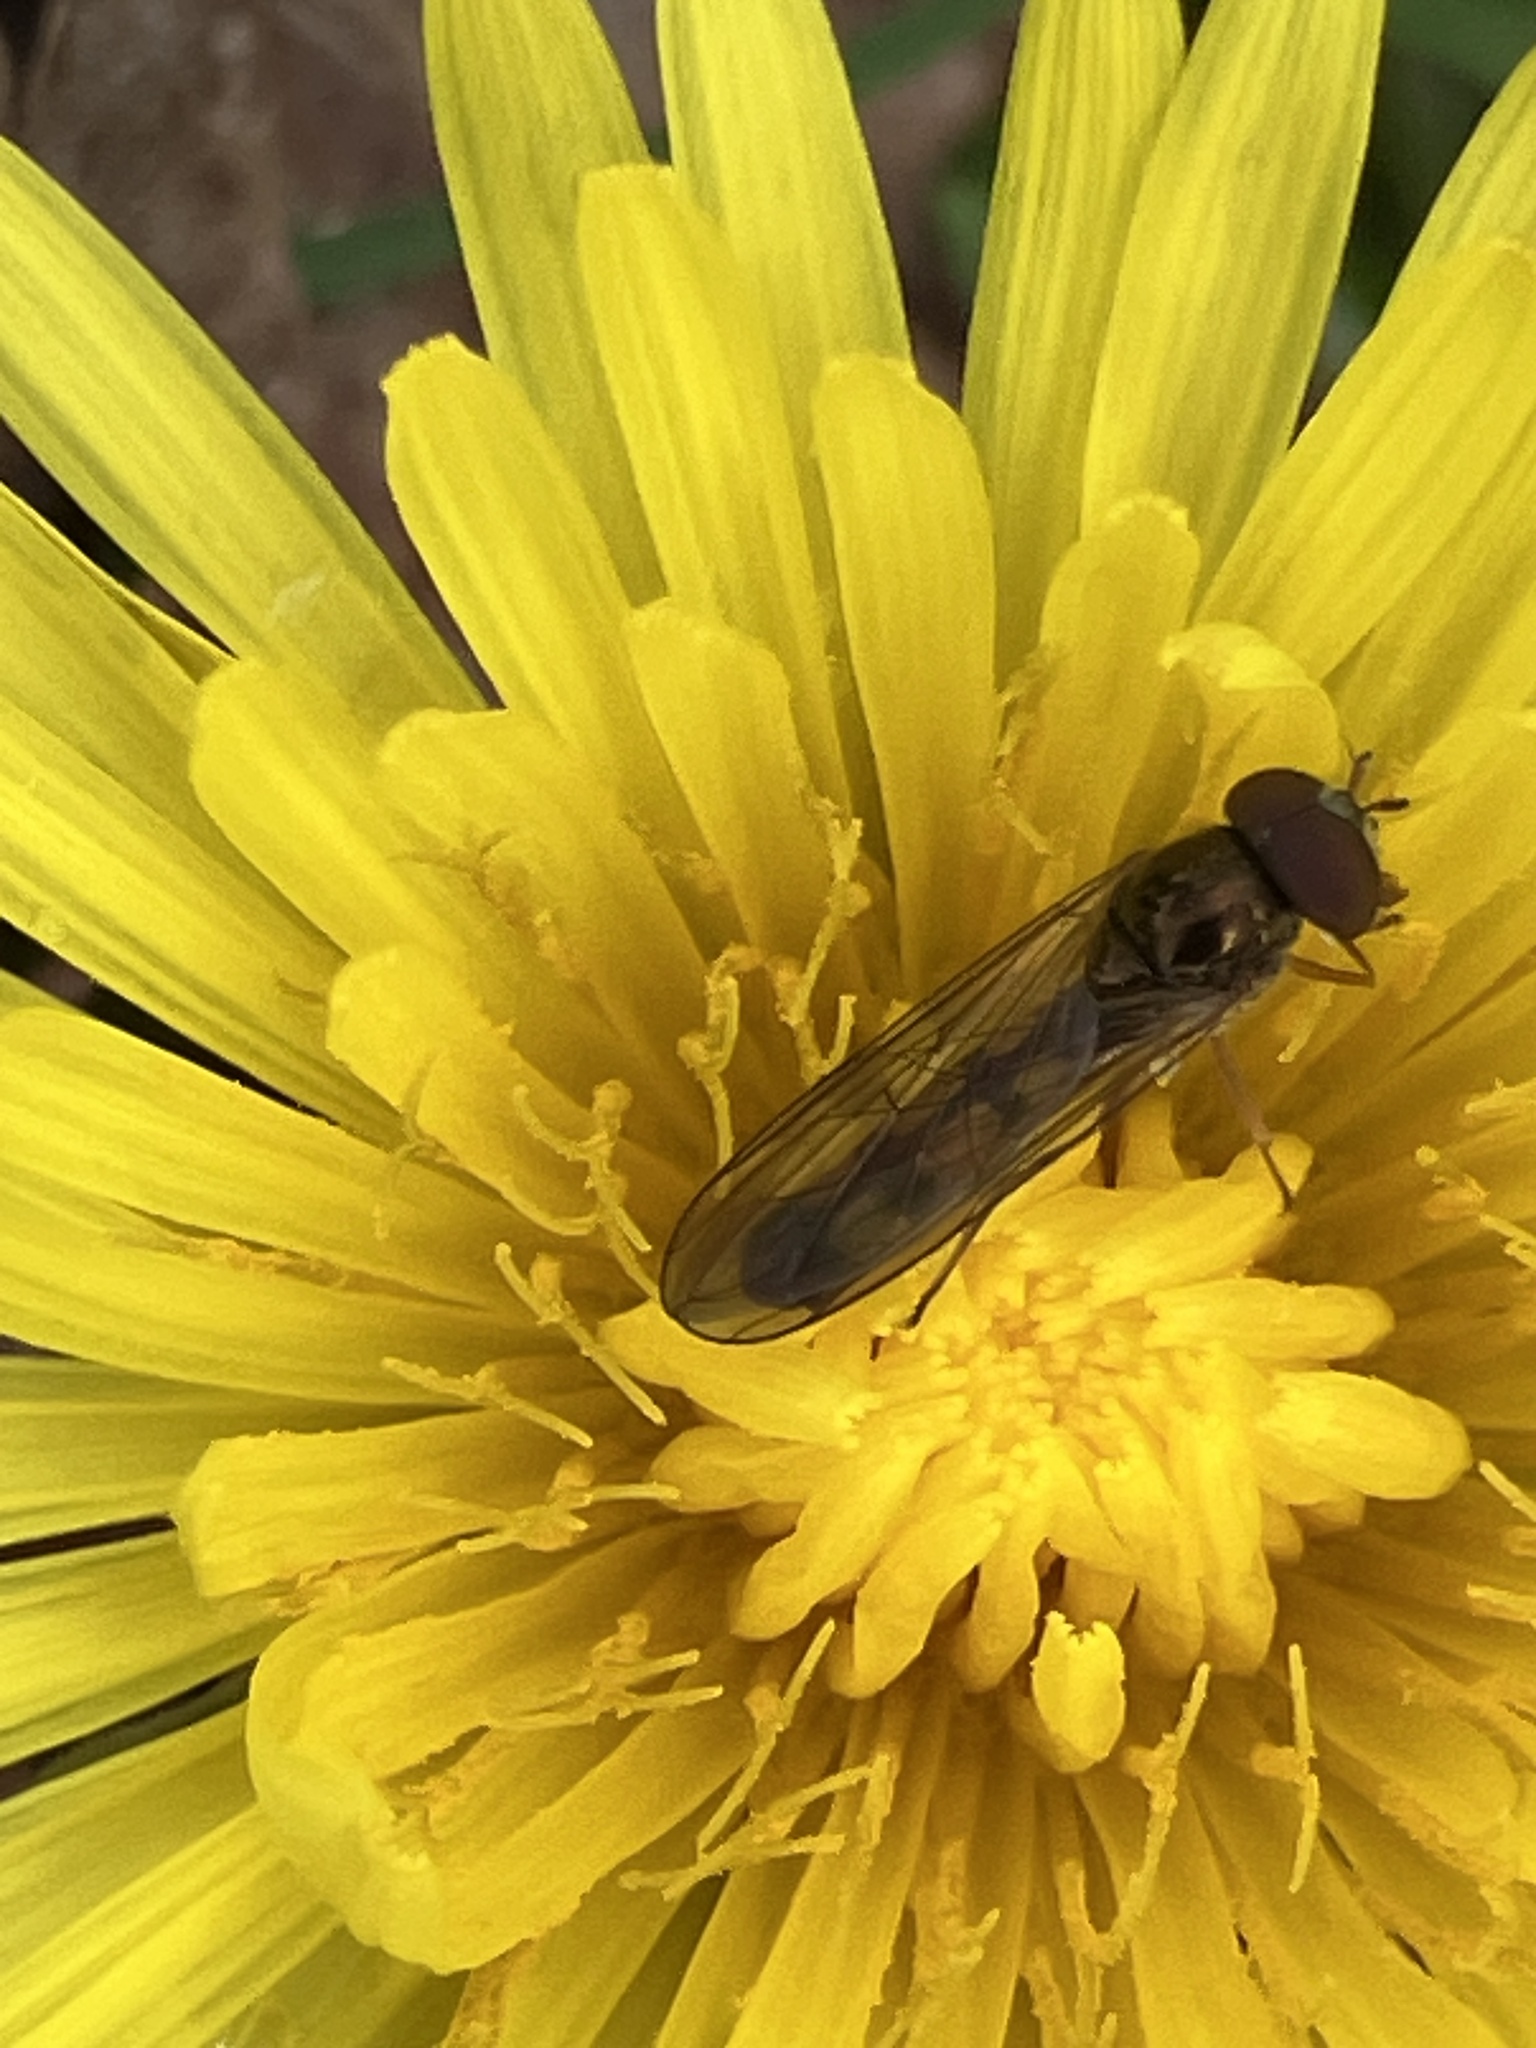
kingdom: Animalia
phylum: Arthropoda
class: Insecta
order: Diptera
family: Syrphidae
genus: Melanostoma
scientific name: Melanostoma scalare
